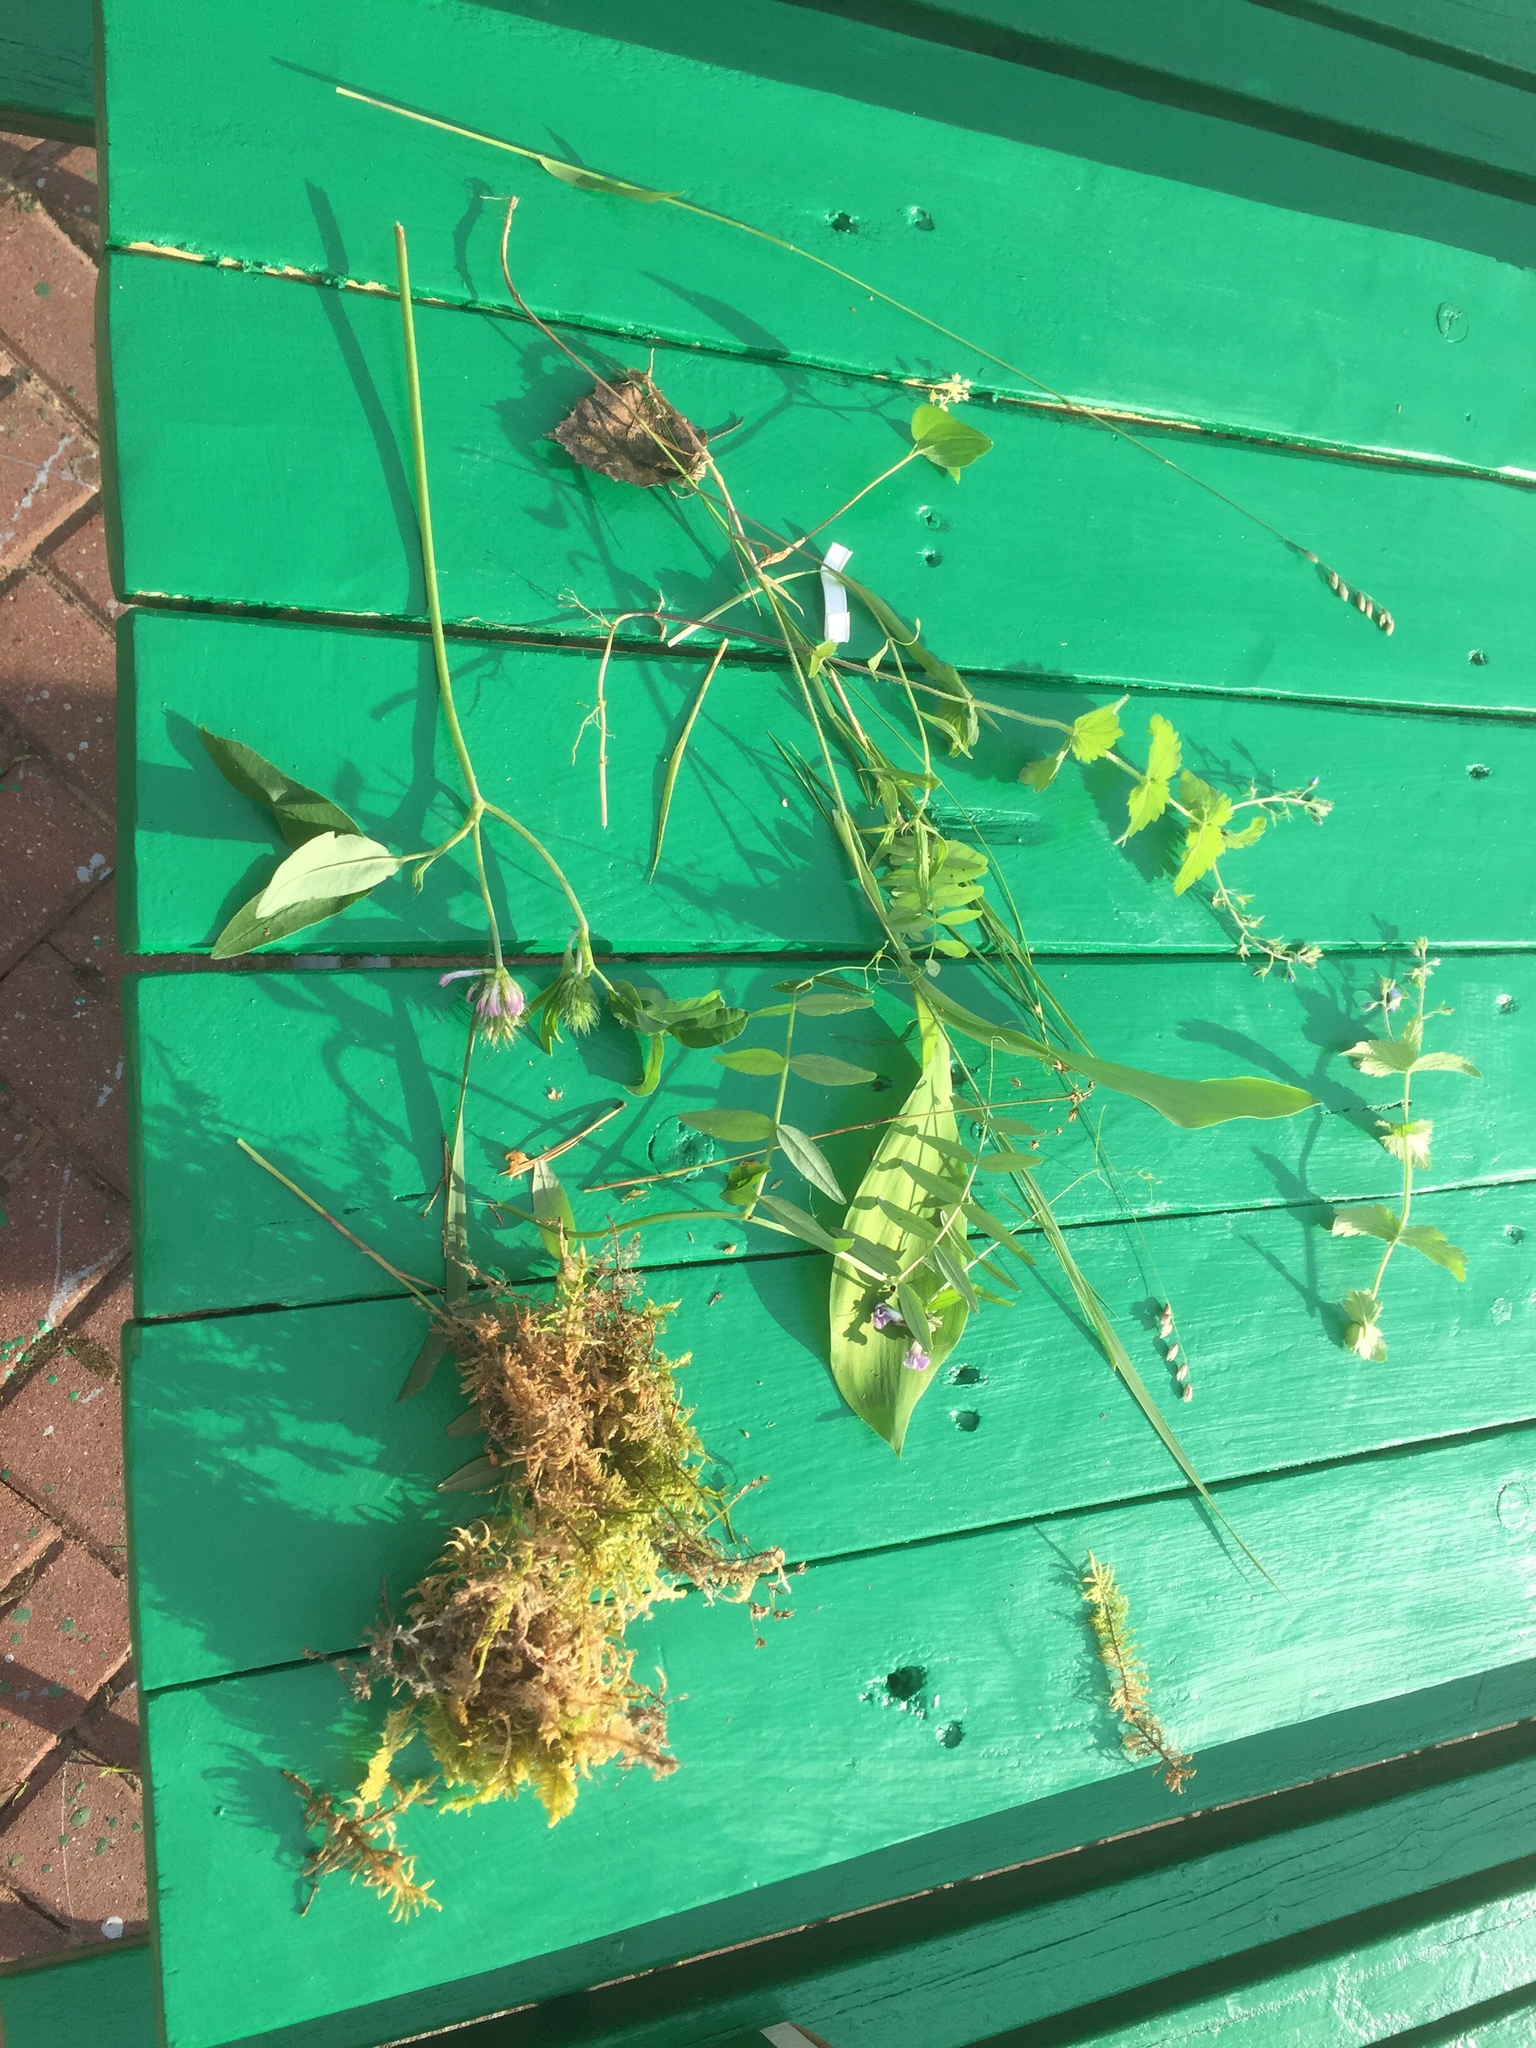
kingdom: Plantae
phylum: Tracheophyta
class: Magnoliopsida
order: Lamiales
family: Plantaginaceae
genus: Veronica
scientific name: Veronica chamaedrys
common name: Germander speedwell
